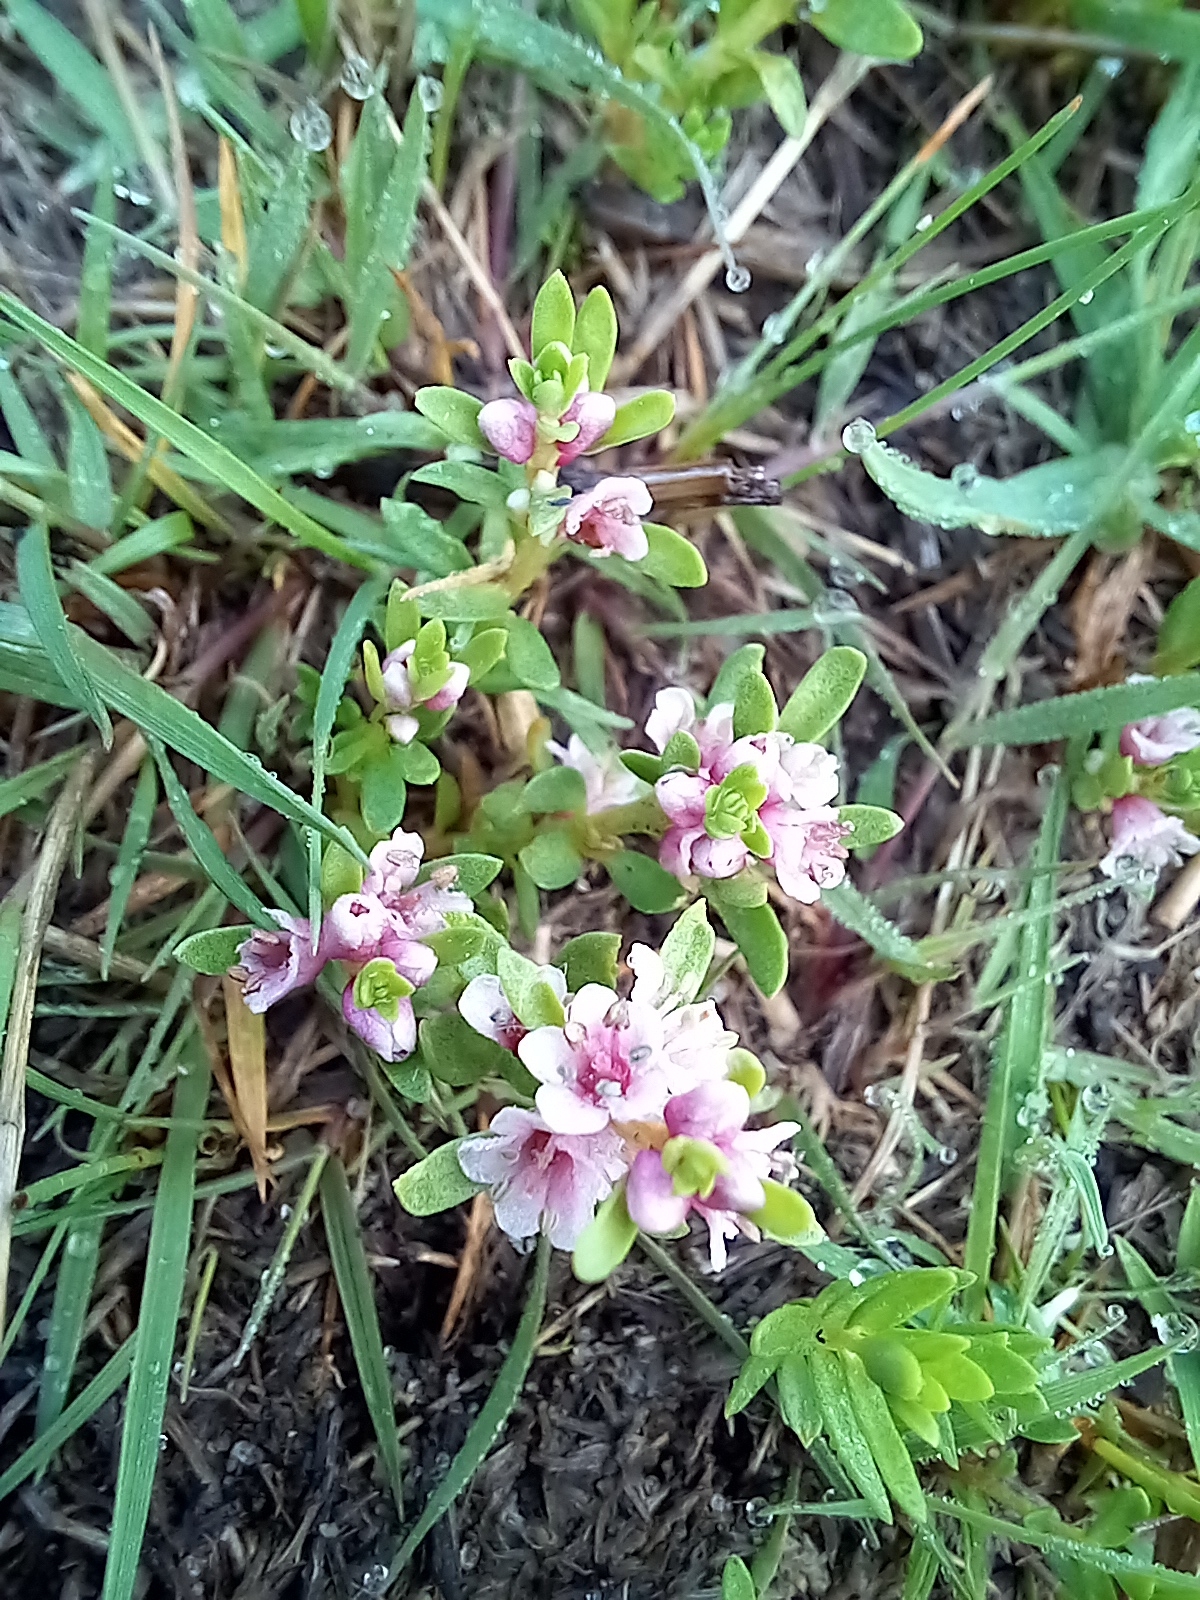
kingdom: Plantae
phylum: Tracheophyta
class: Magnoliopsida
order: Ericales
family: Primulaceae
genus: Lysimachia
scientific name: Lysimachia maritima
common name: Sea milkwort
